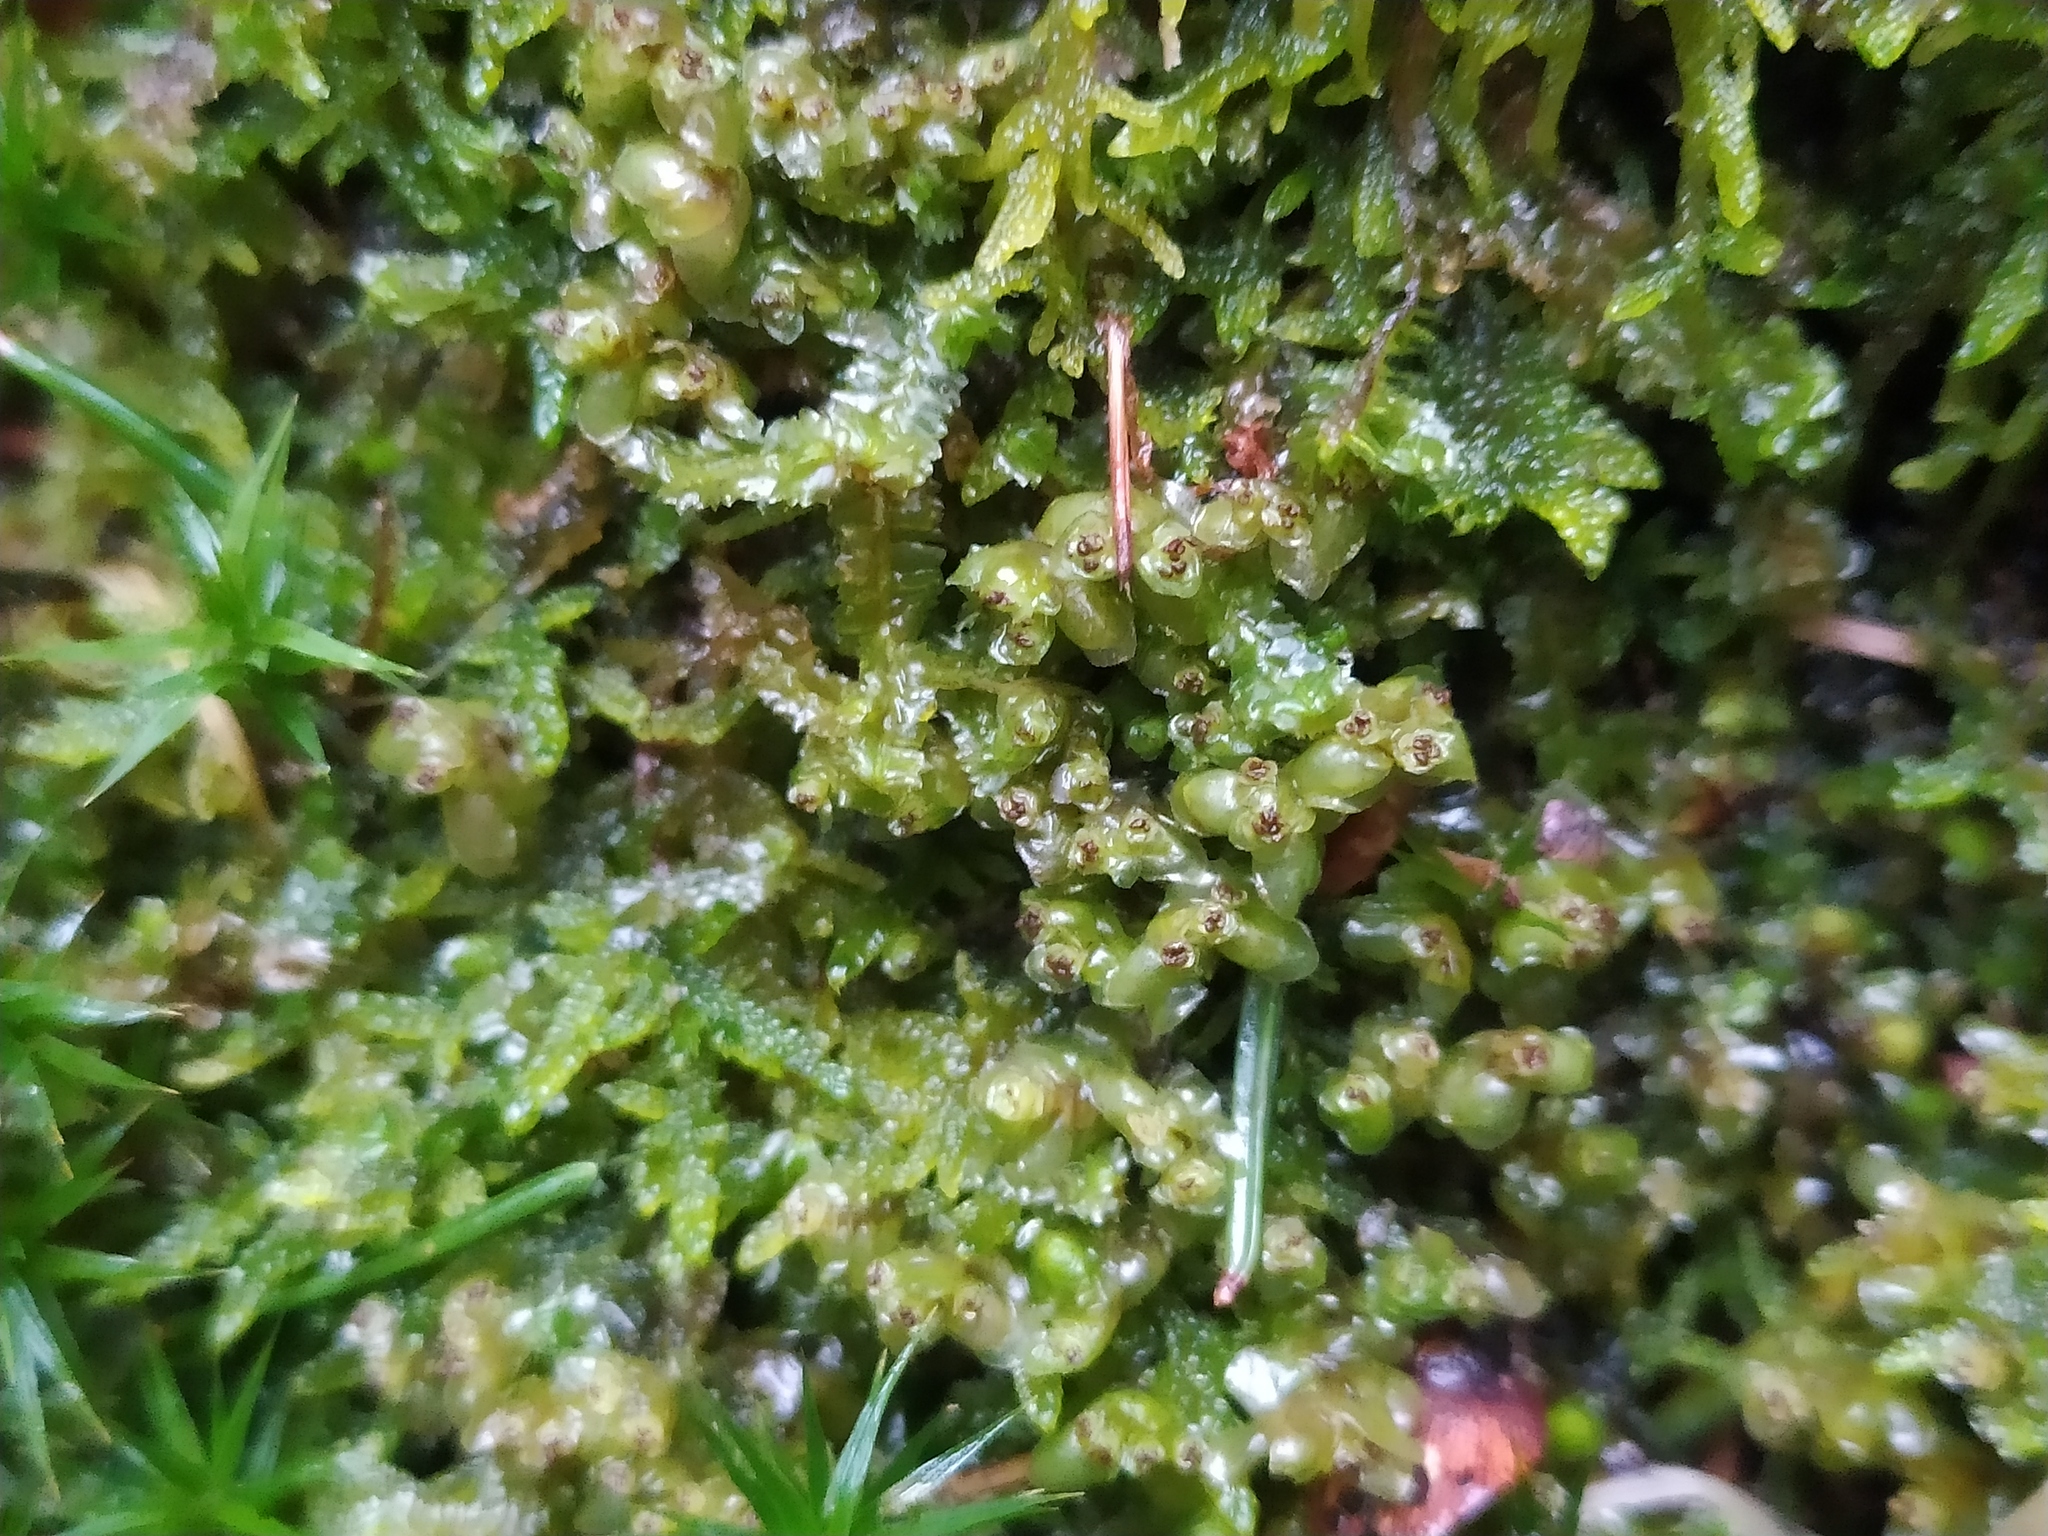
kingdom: Plantae
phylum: Marchantiophyta
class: Jungermanniopsida
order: Jungermanniales
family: Scapaniaceae
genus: Scapania
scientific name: Scapania nemorea
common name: Grove earwort
